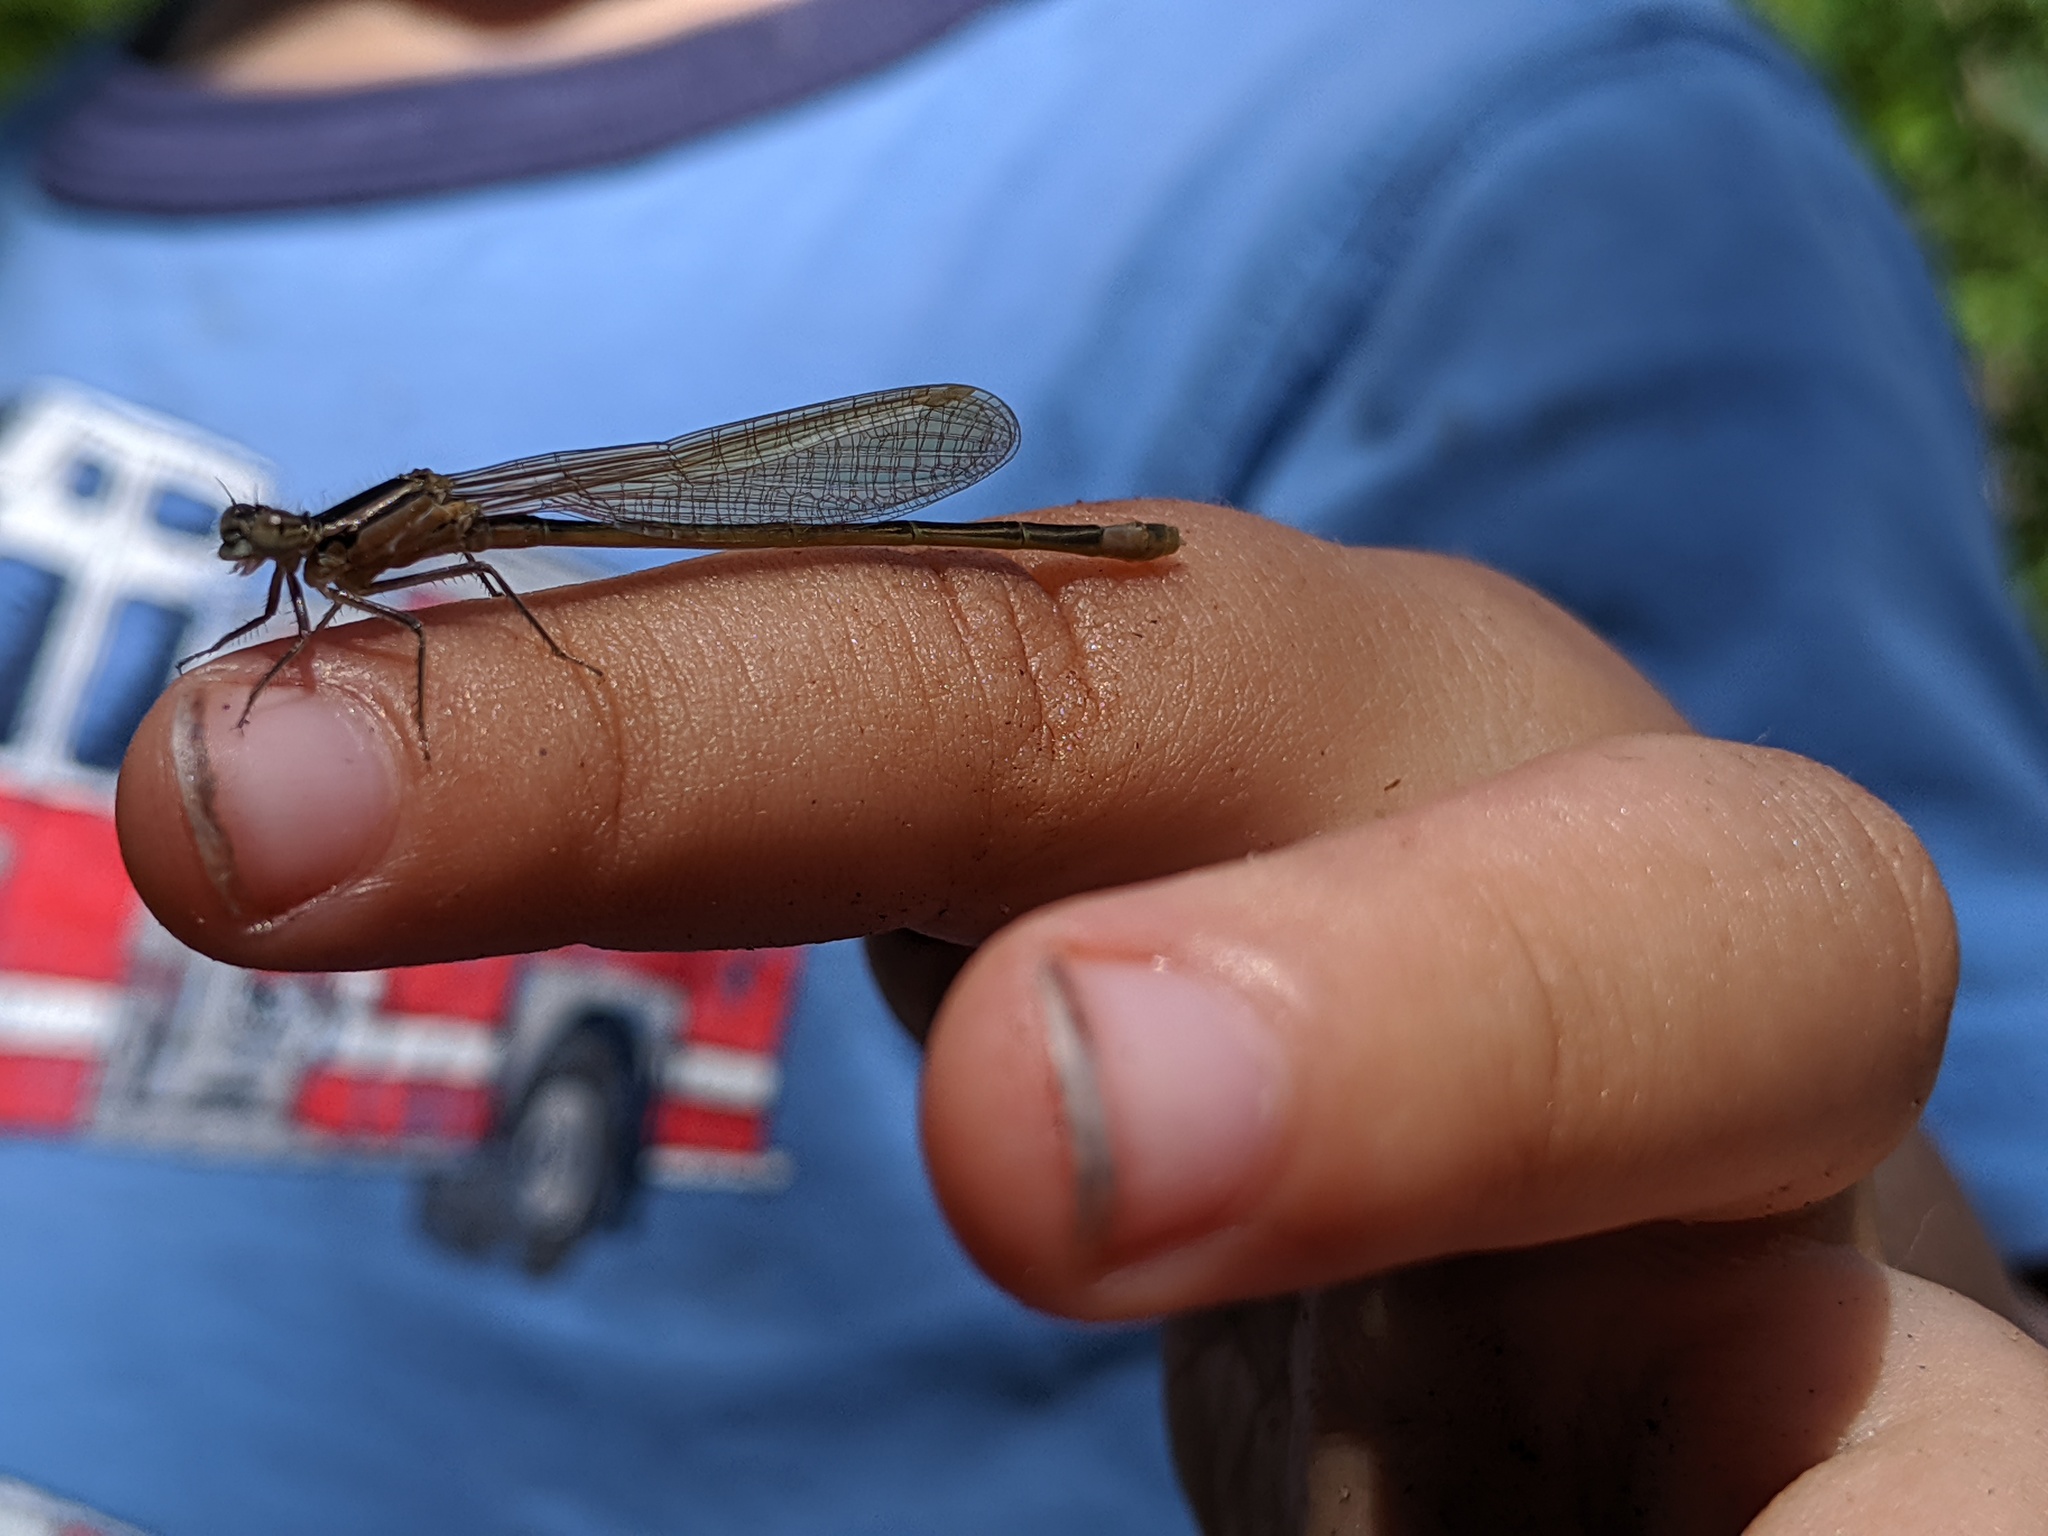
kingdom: Animalia
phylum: Arthropoda
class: Insecta
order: Odonata
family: Coenagrionidae
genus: Ischnura
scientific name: Ischnura elegans
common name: Blue-tailed damselfly
